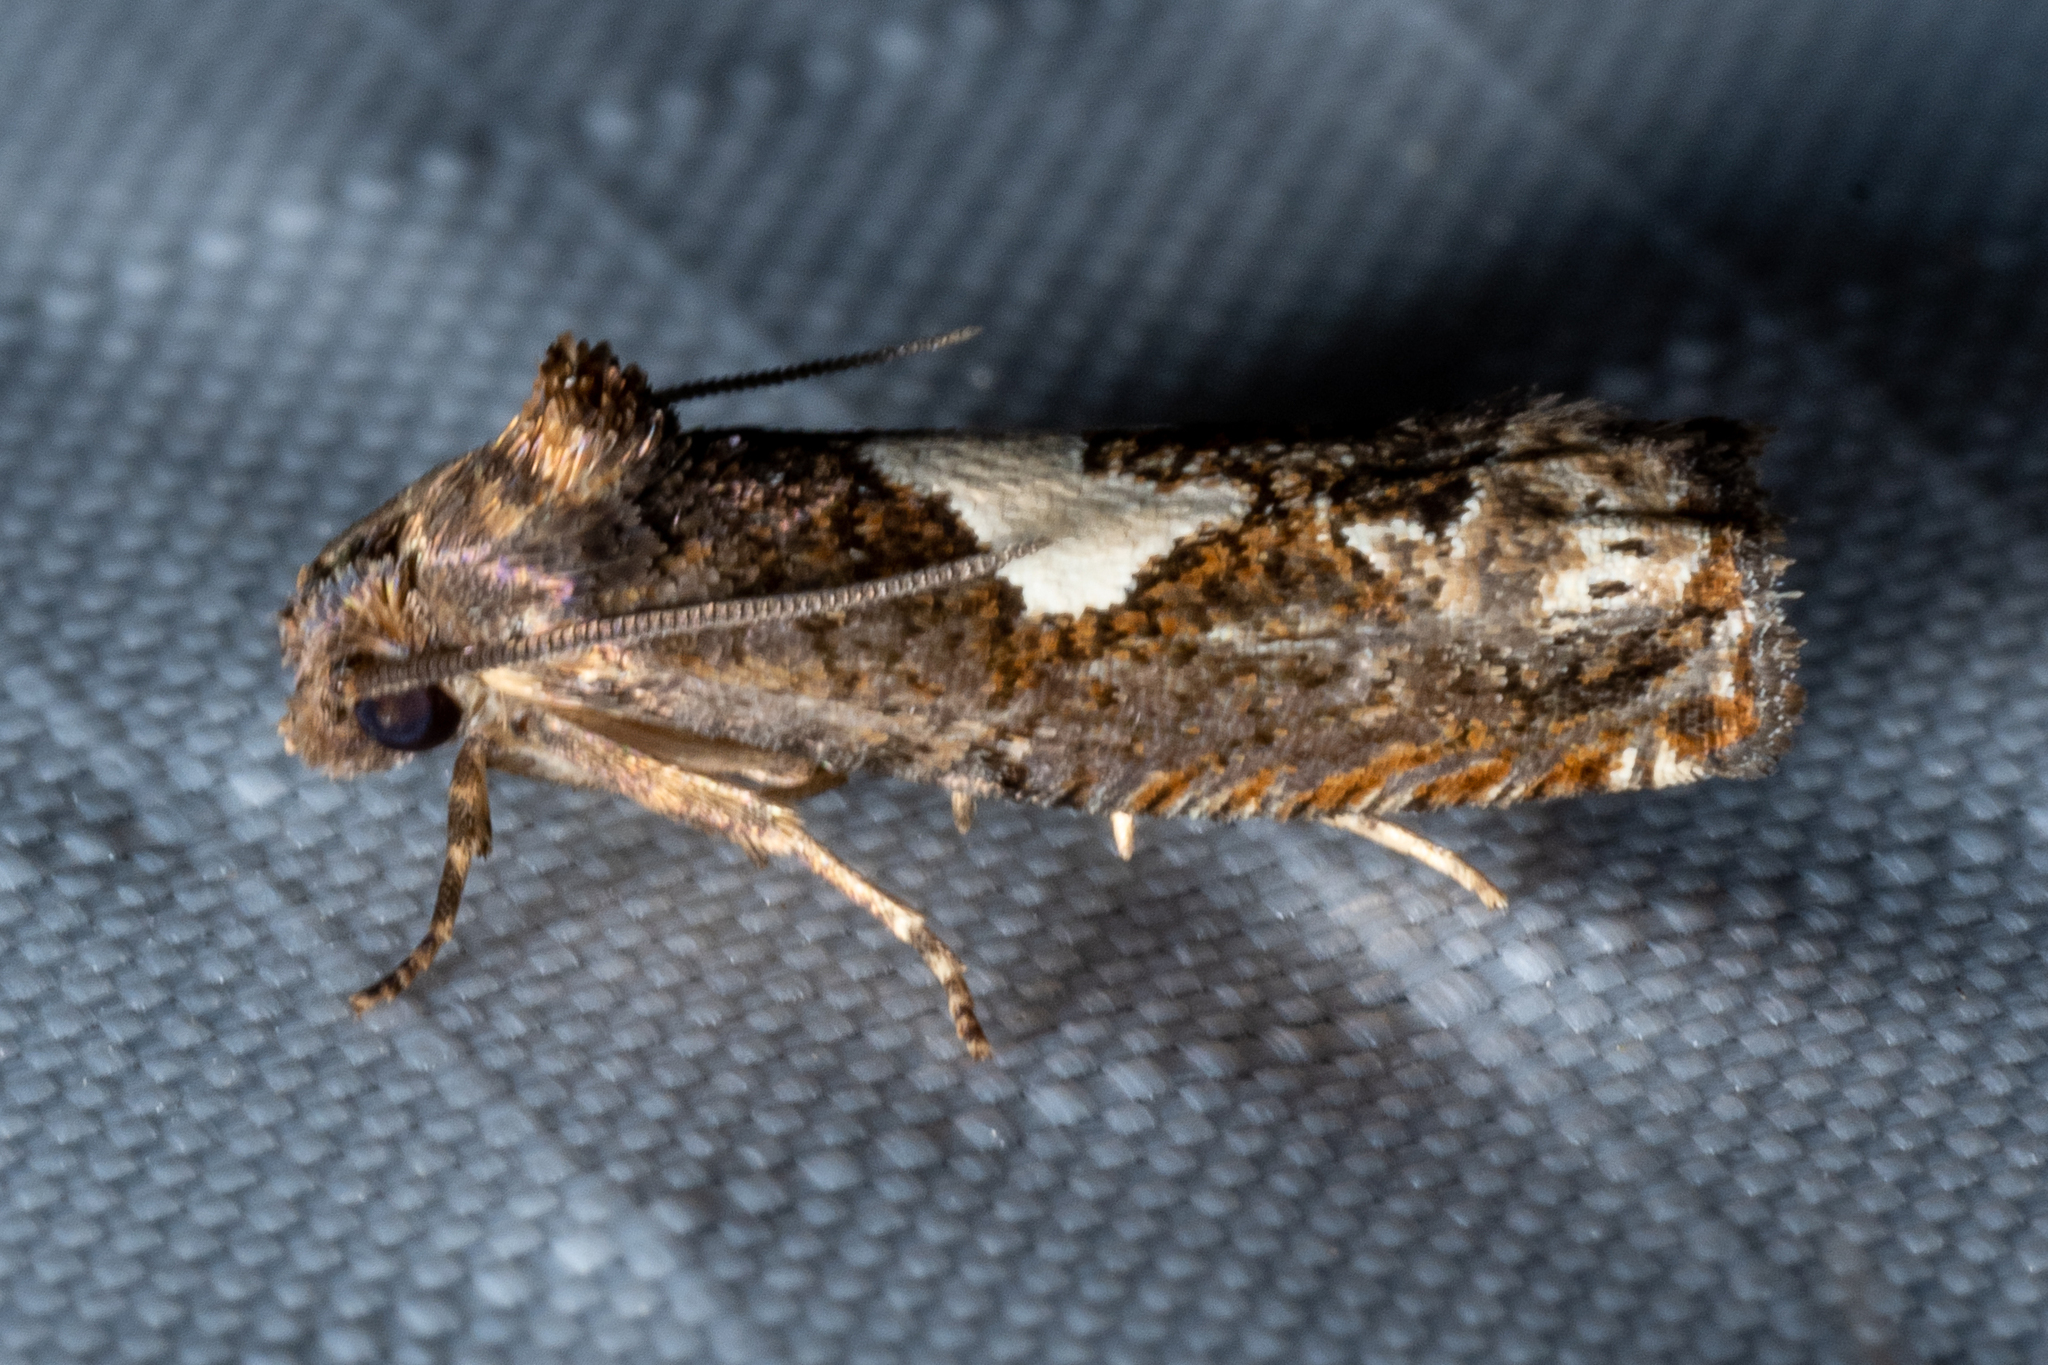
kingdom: Animalia
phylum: Arthropoda
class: Insecta
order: Lepidoptera
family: Tortricidae
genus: Epiblema
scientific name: Epiblema otiosana
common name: Bidens borer moth
